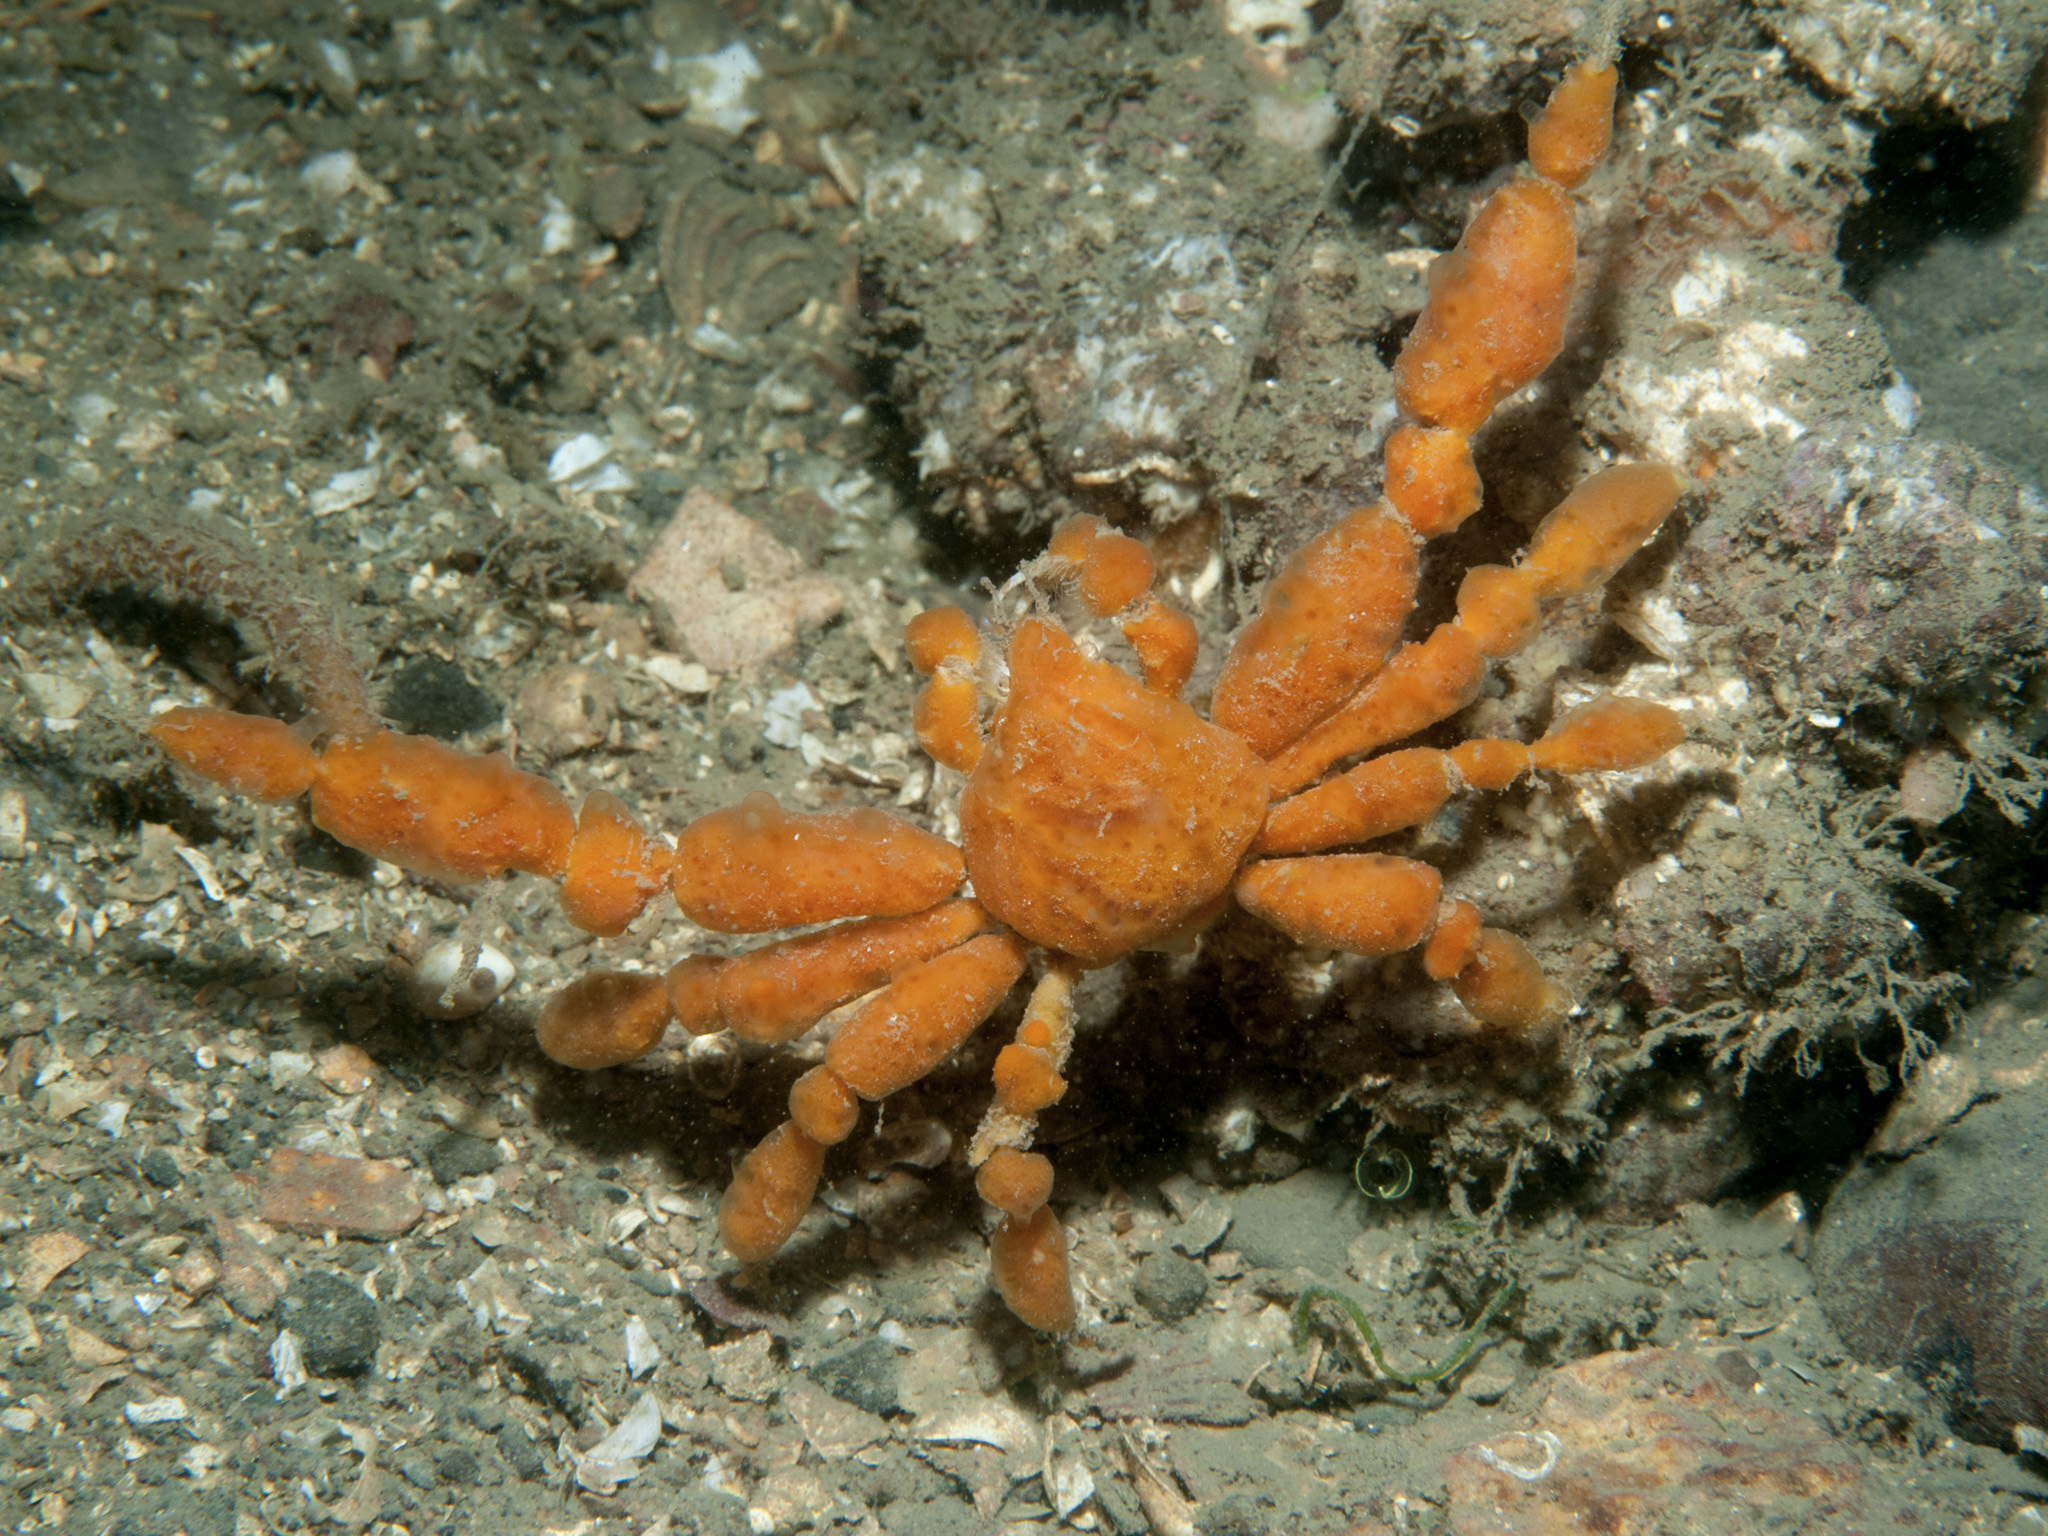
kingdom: Animalia
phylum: Arthropoda
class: Malacostraca
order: Decapoda
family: Inachidae
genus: Inachus
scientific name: Inachus dorsettensis
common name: Scorpion spider crab
